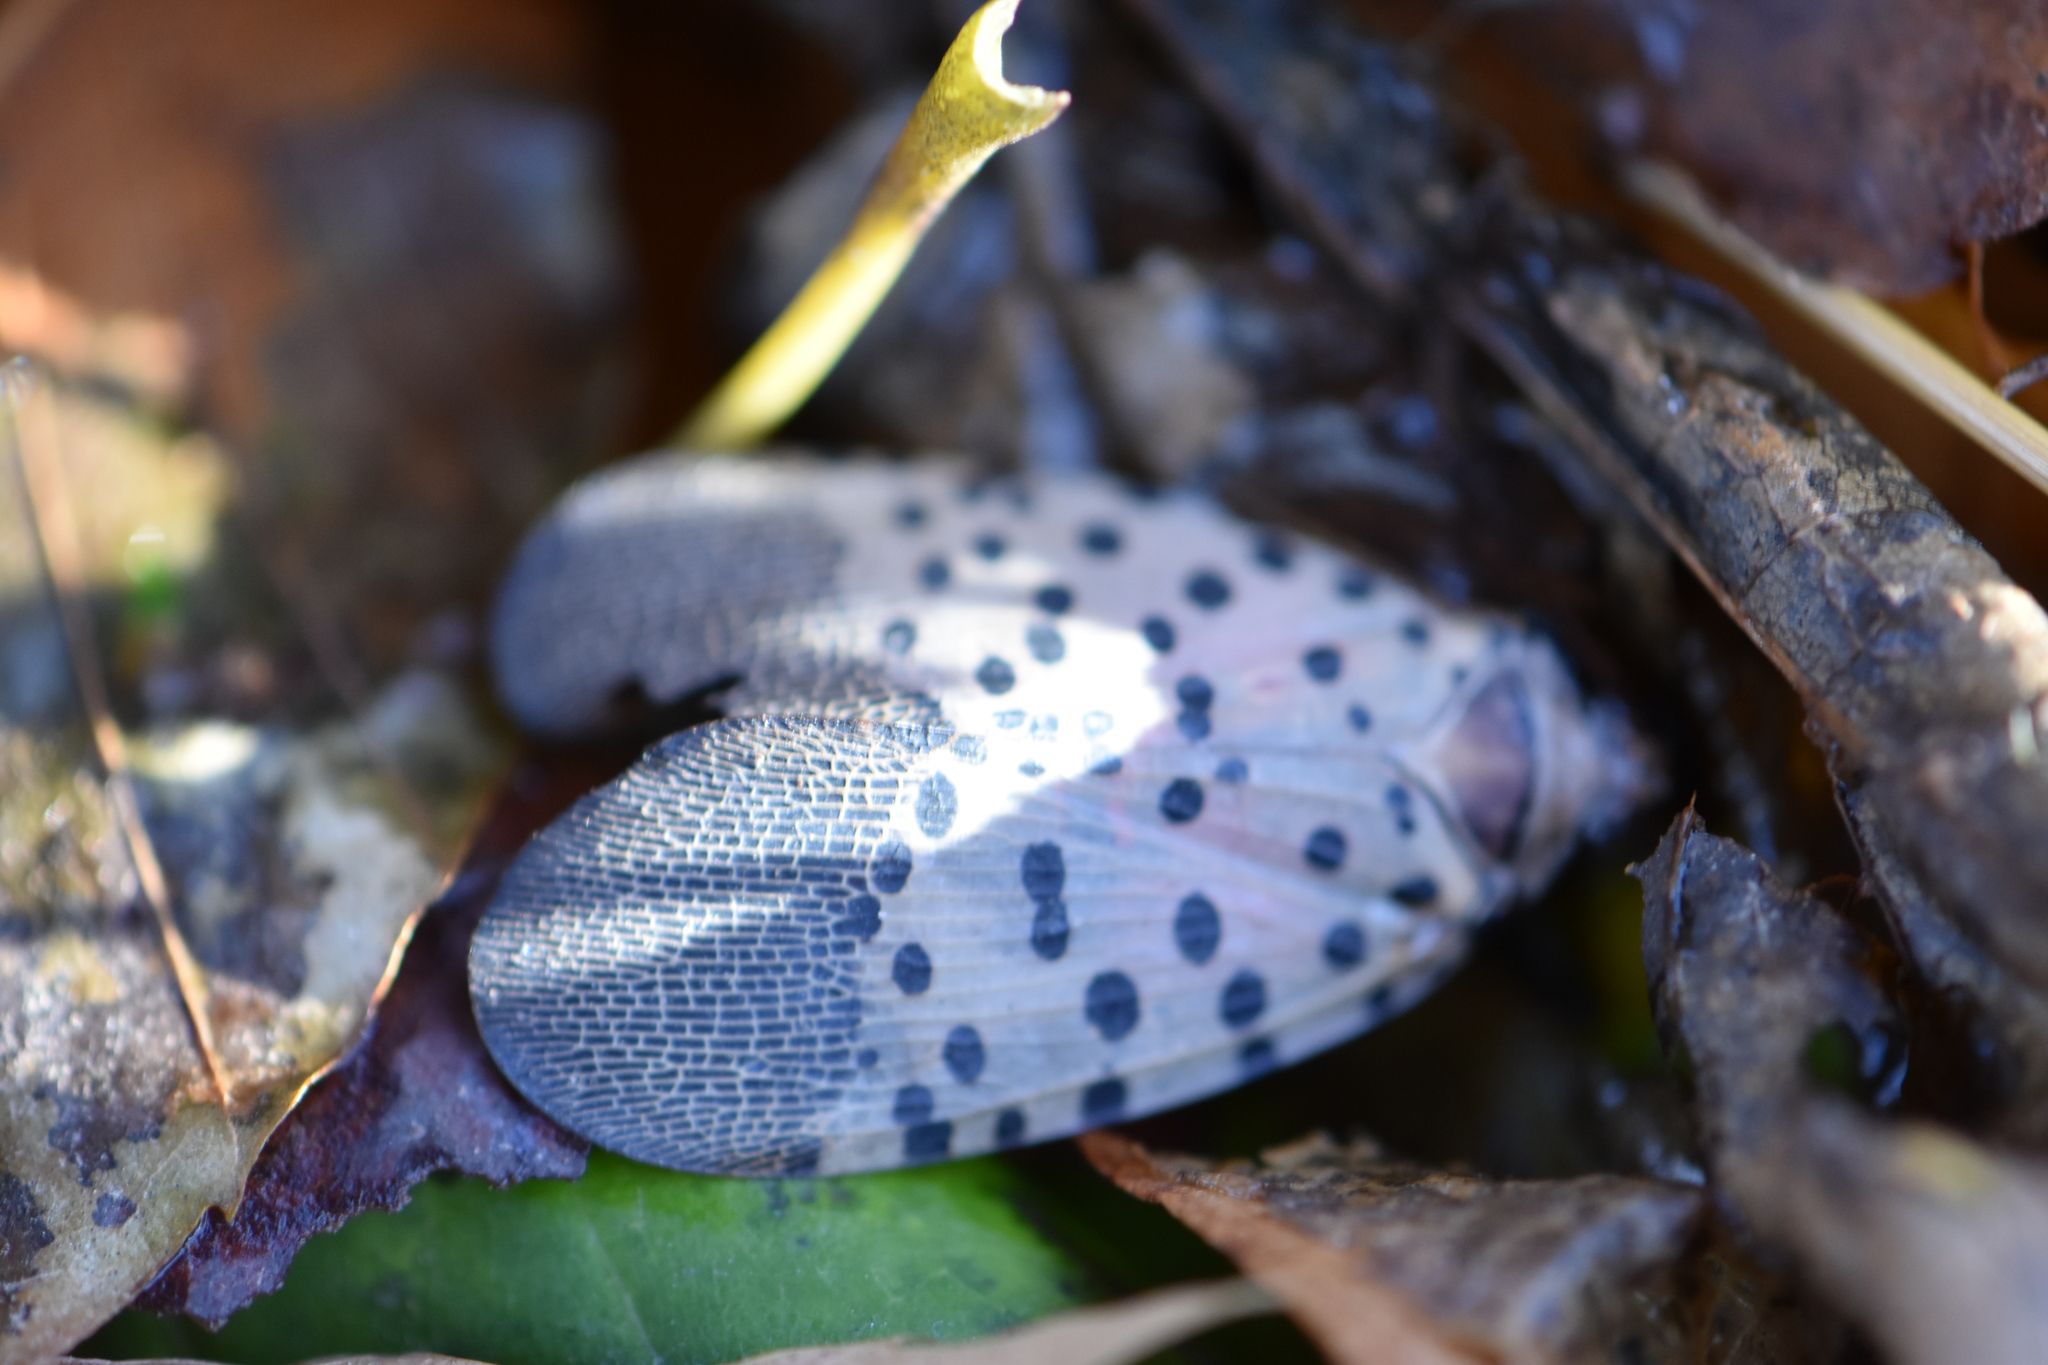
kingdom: Animalia
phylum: Arthropoda
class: Insecta
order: Hemiptera
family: Fulgoridae
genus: Lycorma
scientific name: Lycorma delicatula
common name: Spotted lanternfly
